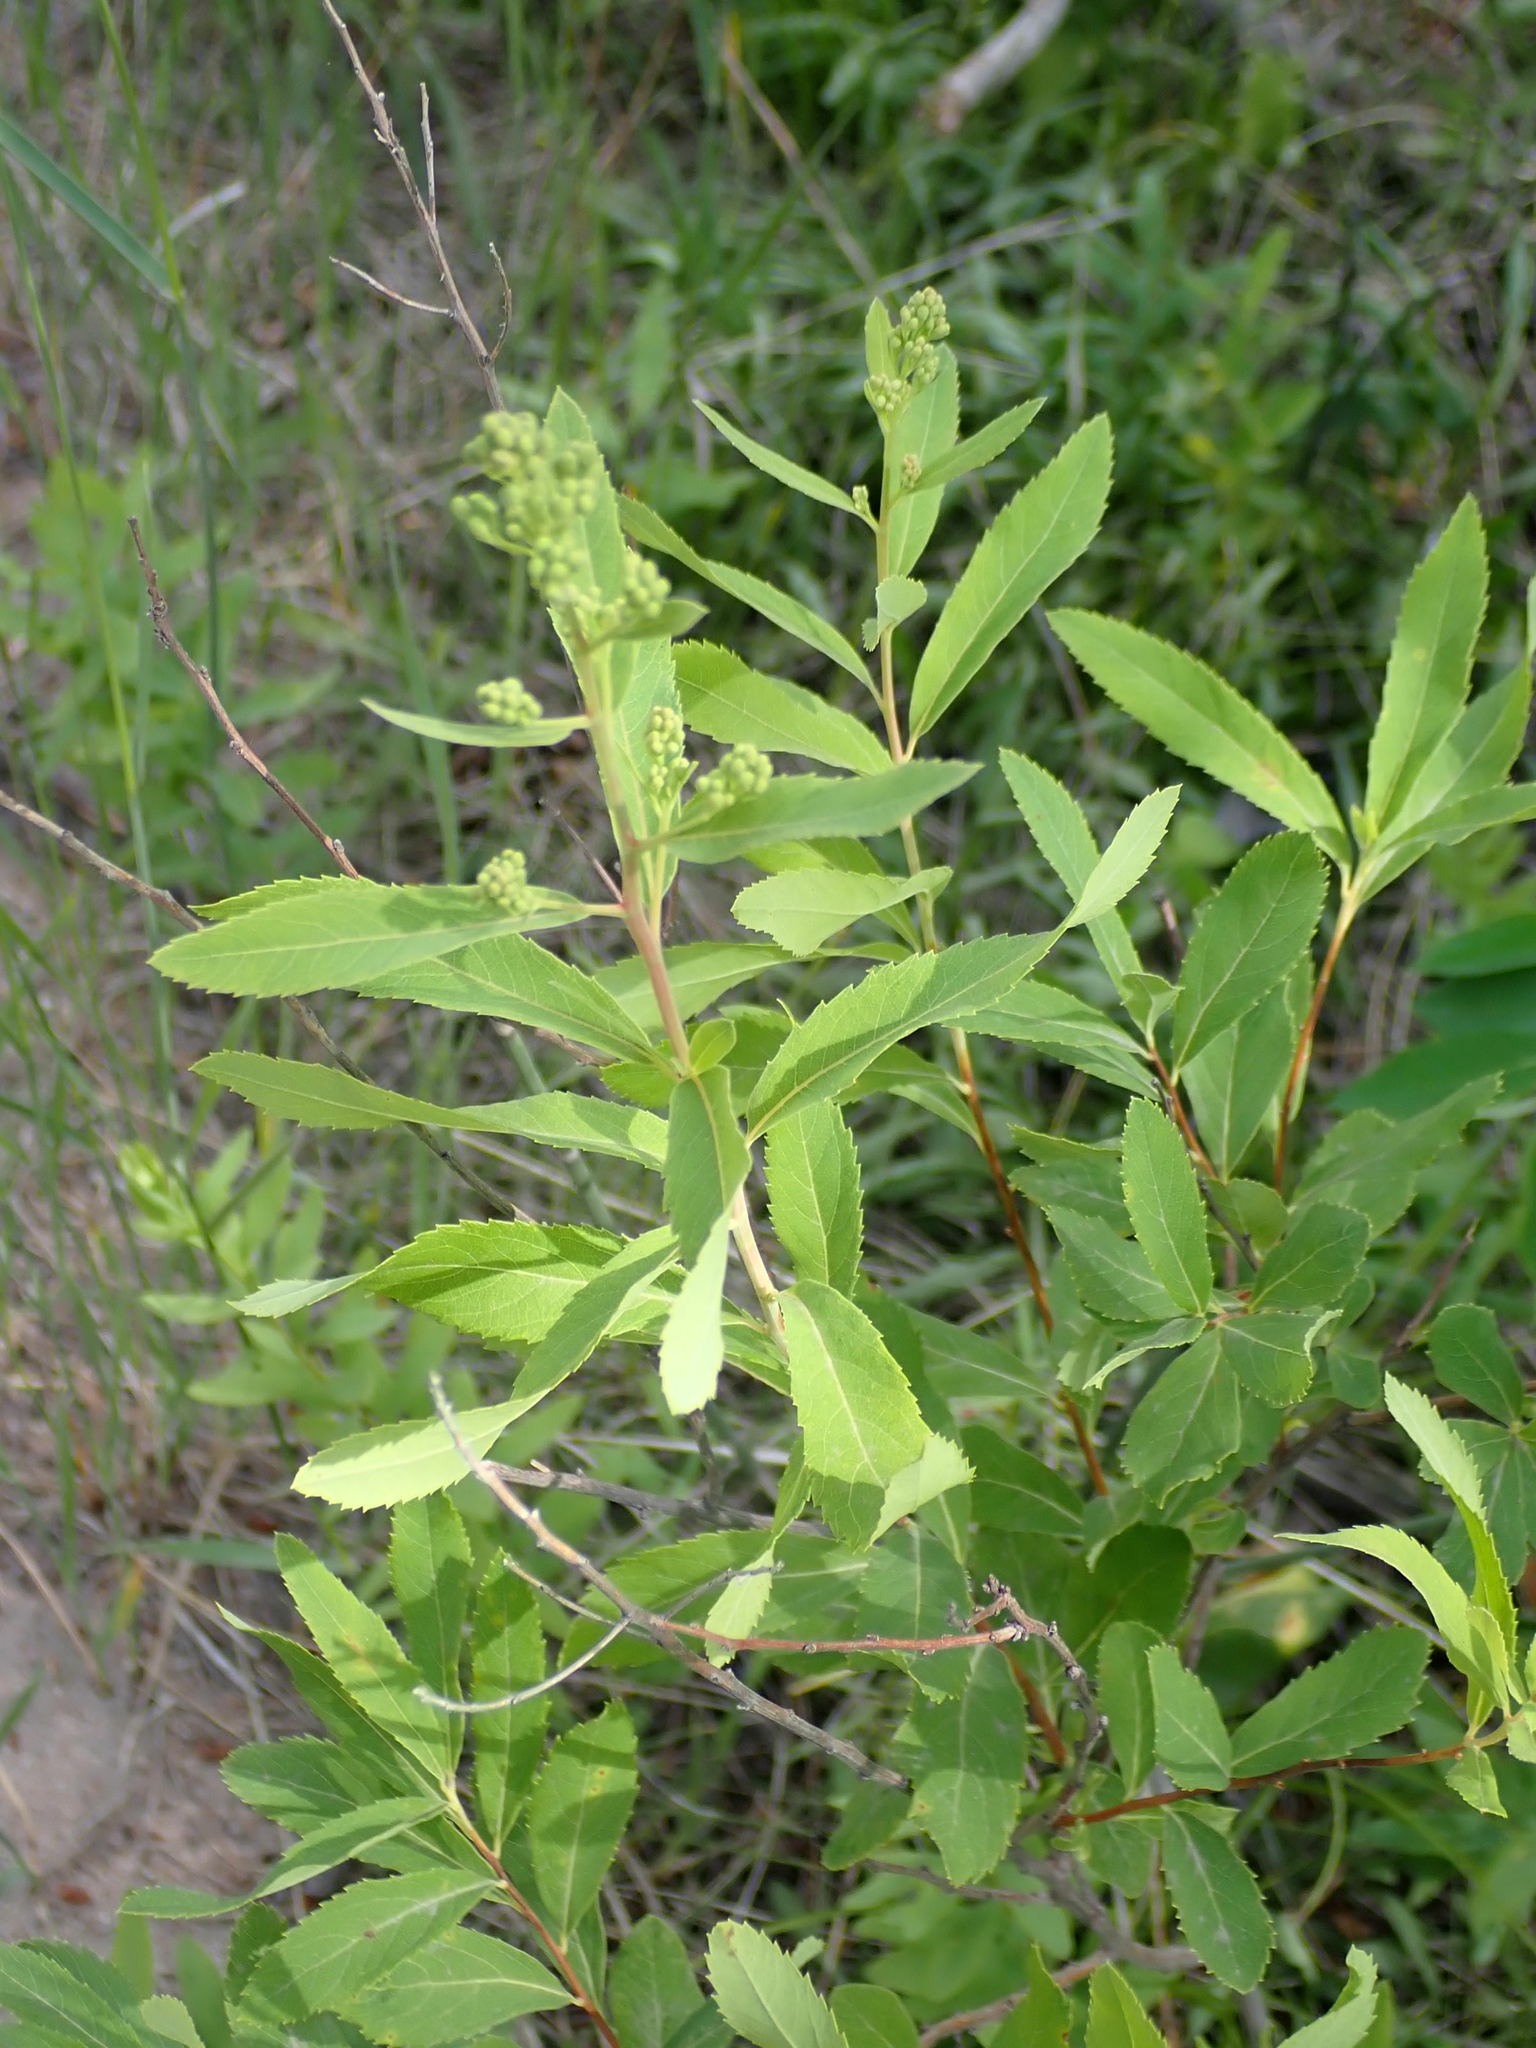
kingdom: Plantae
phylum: Tracheophyta
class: Magnoliopsida
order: Rosales
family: Rosaceae
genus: Spiraea
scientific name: Spiraea alba
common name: Pale bridewort
